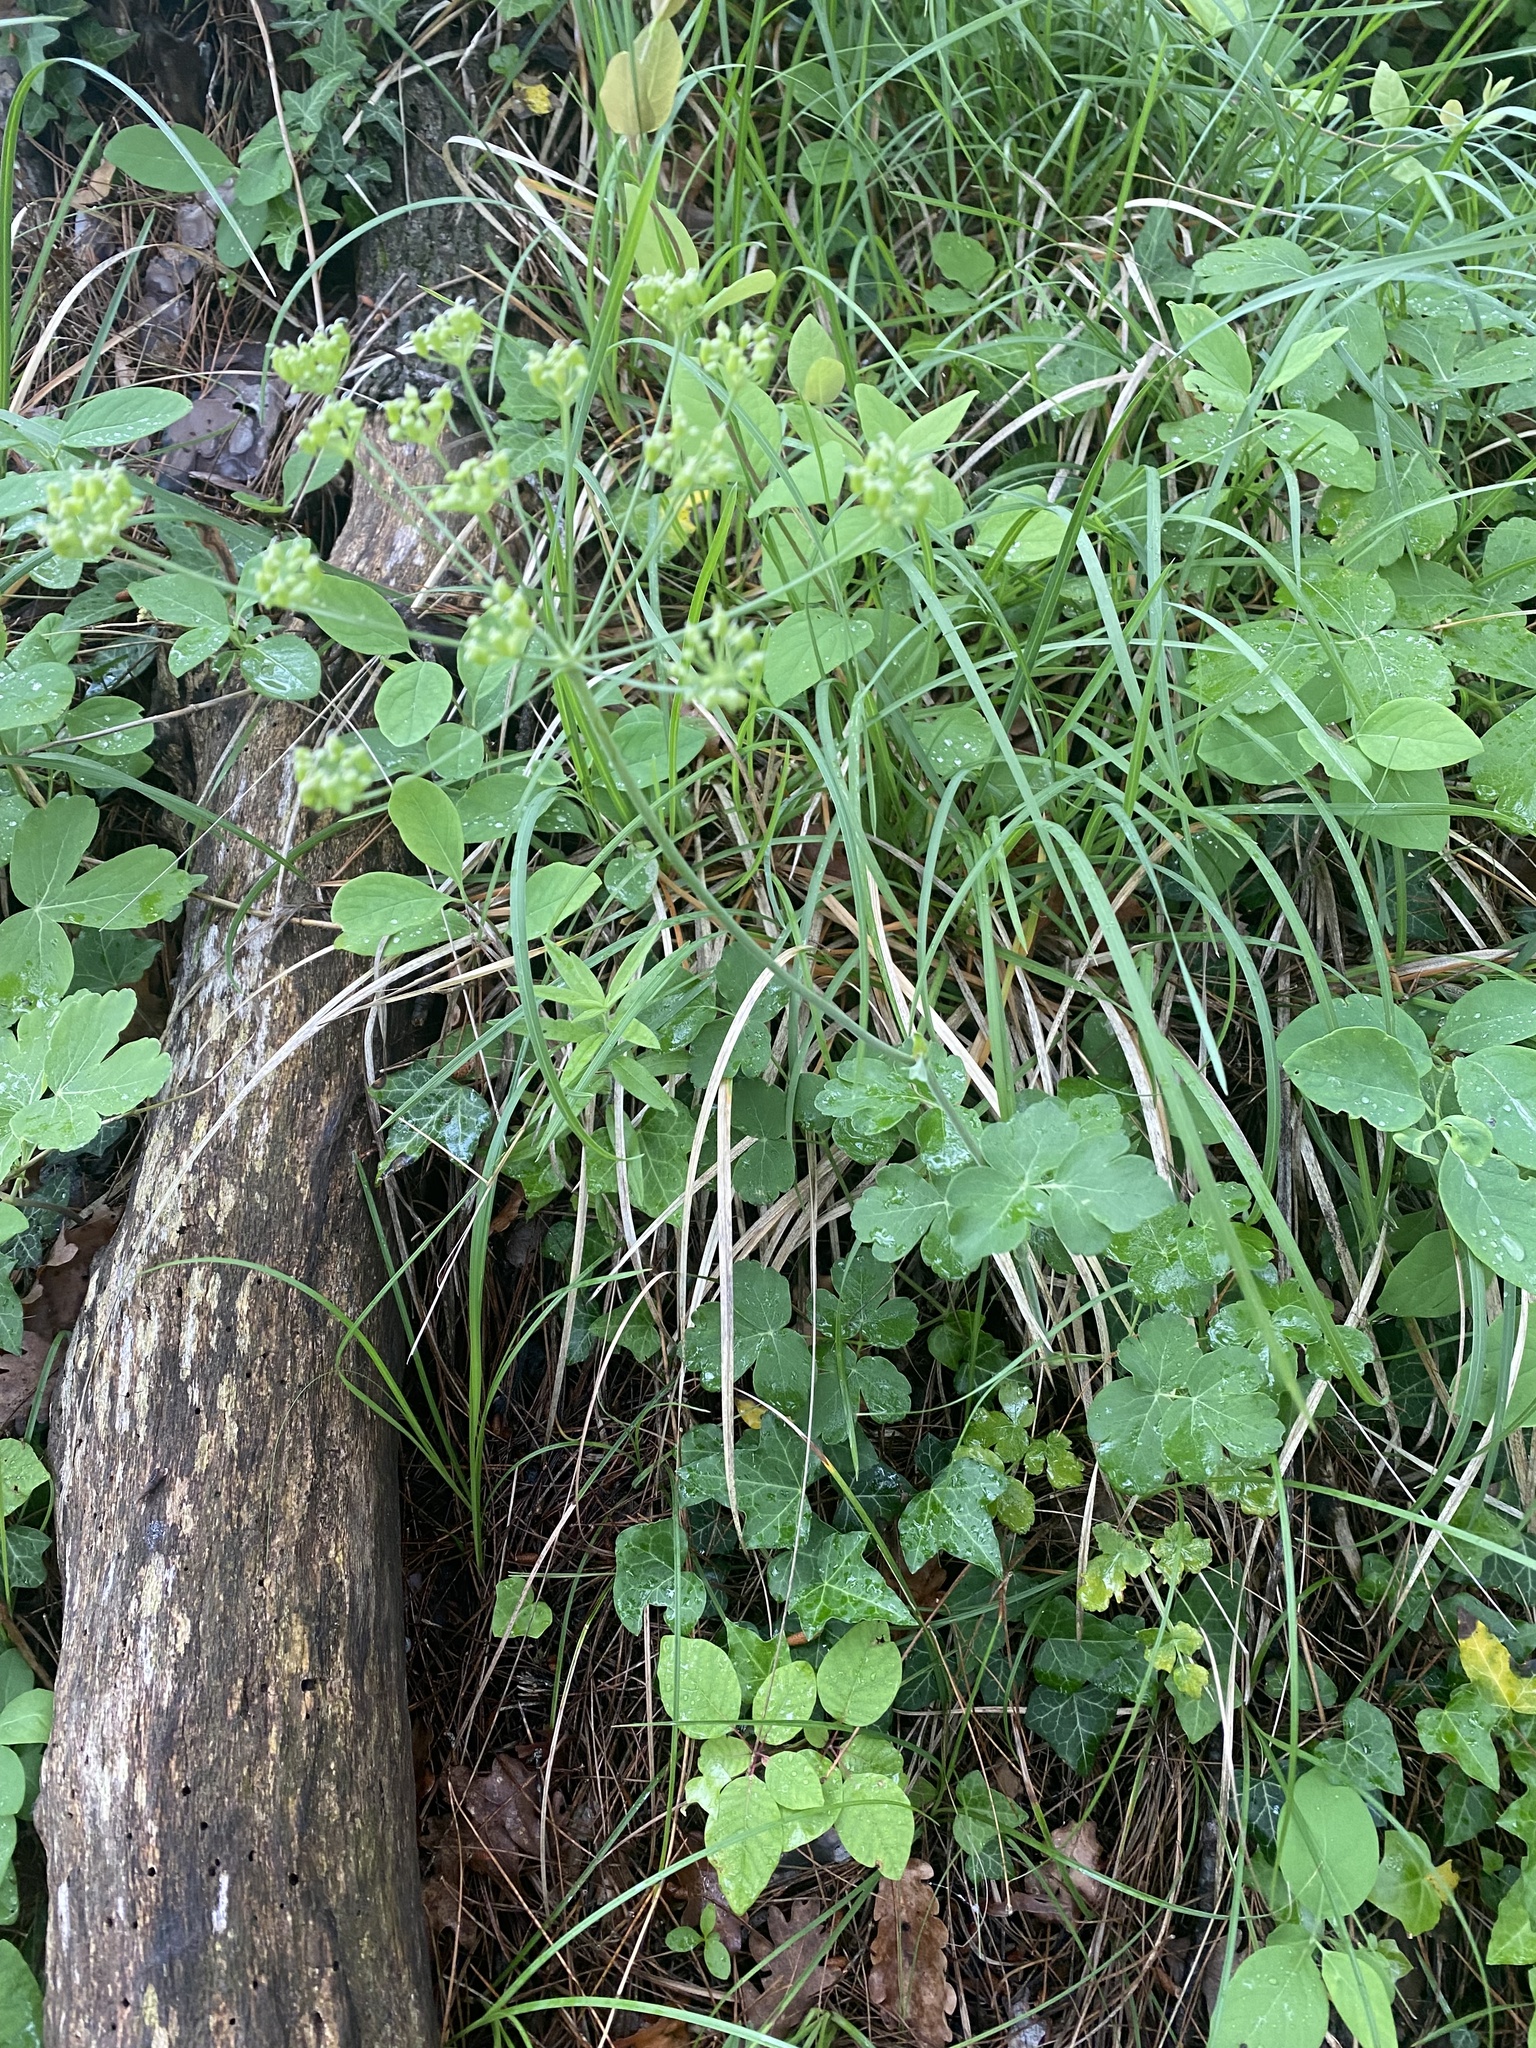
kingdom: Plantae
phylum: Tracheophyta
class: Magnoliopsida
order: Apiales
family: Apiaceae
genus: Laser
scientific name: Laser trilobum
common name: Laser
